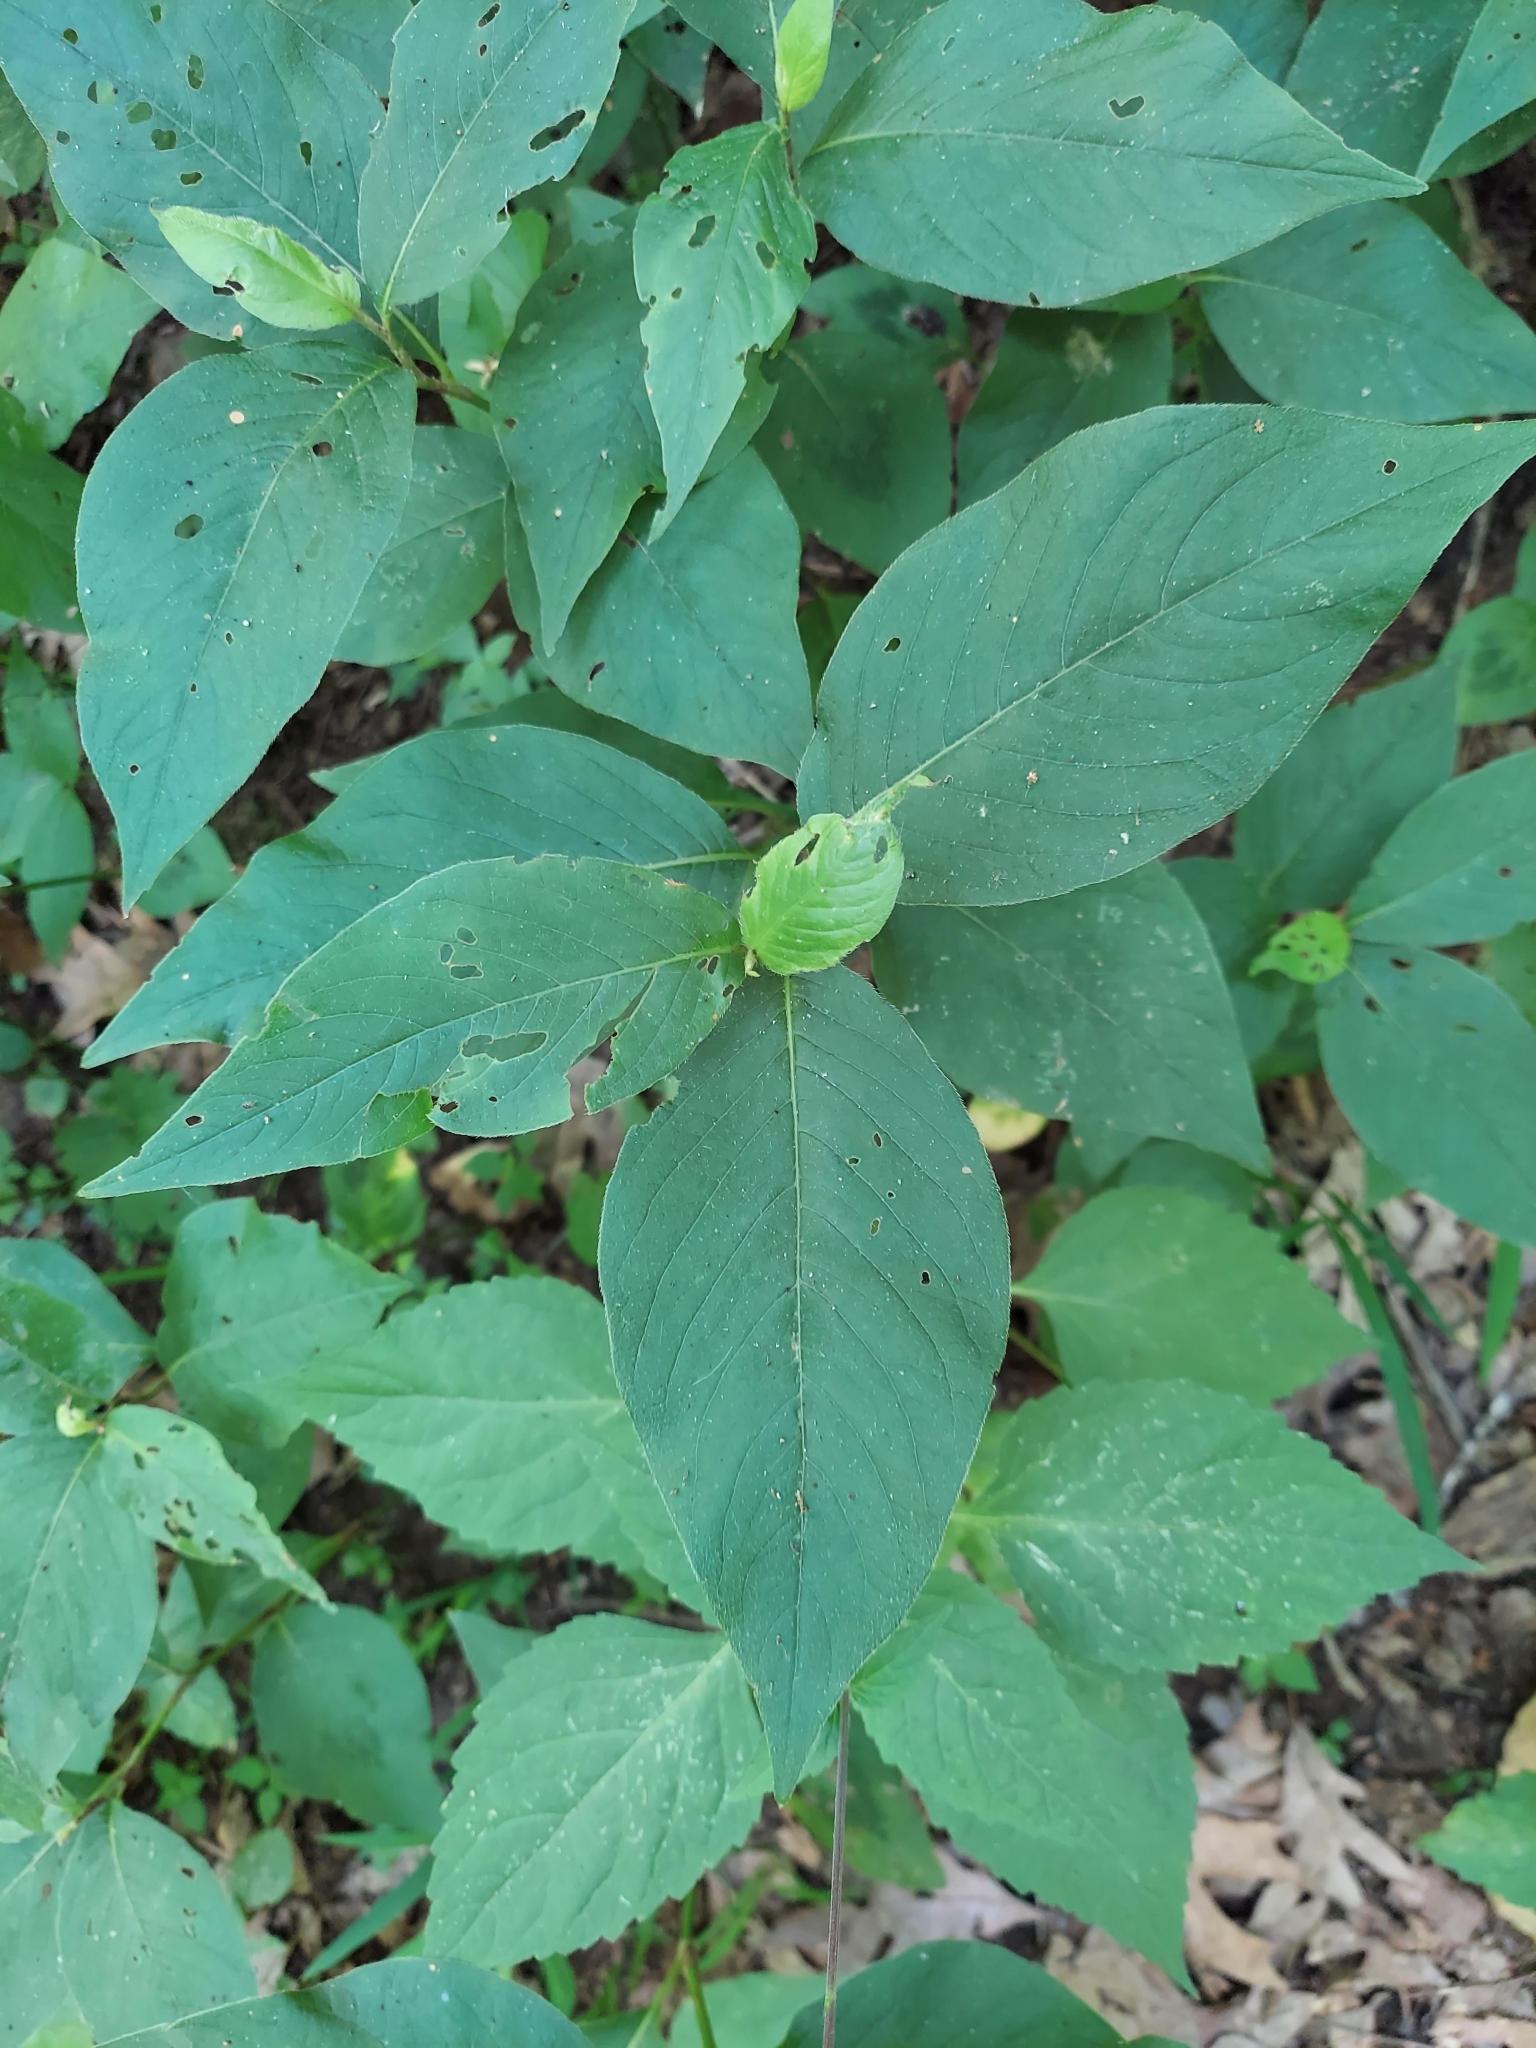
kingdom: Plantae
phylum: Tracheophyta
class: Magnoliopsida
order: Caryophyllales
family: Polygonaceae
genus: Persicaria
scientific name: Persicaria virginiana
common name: Jumpseed
